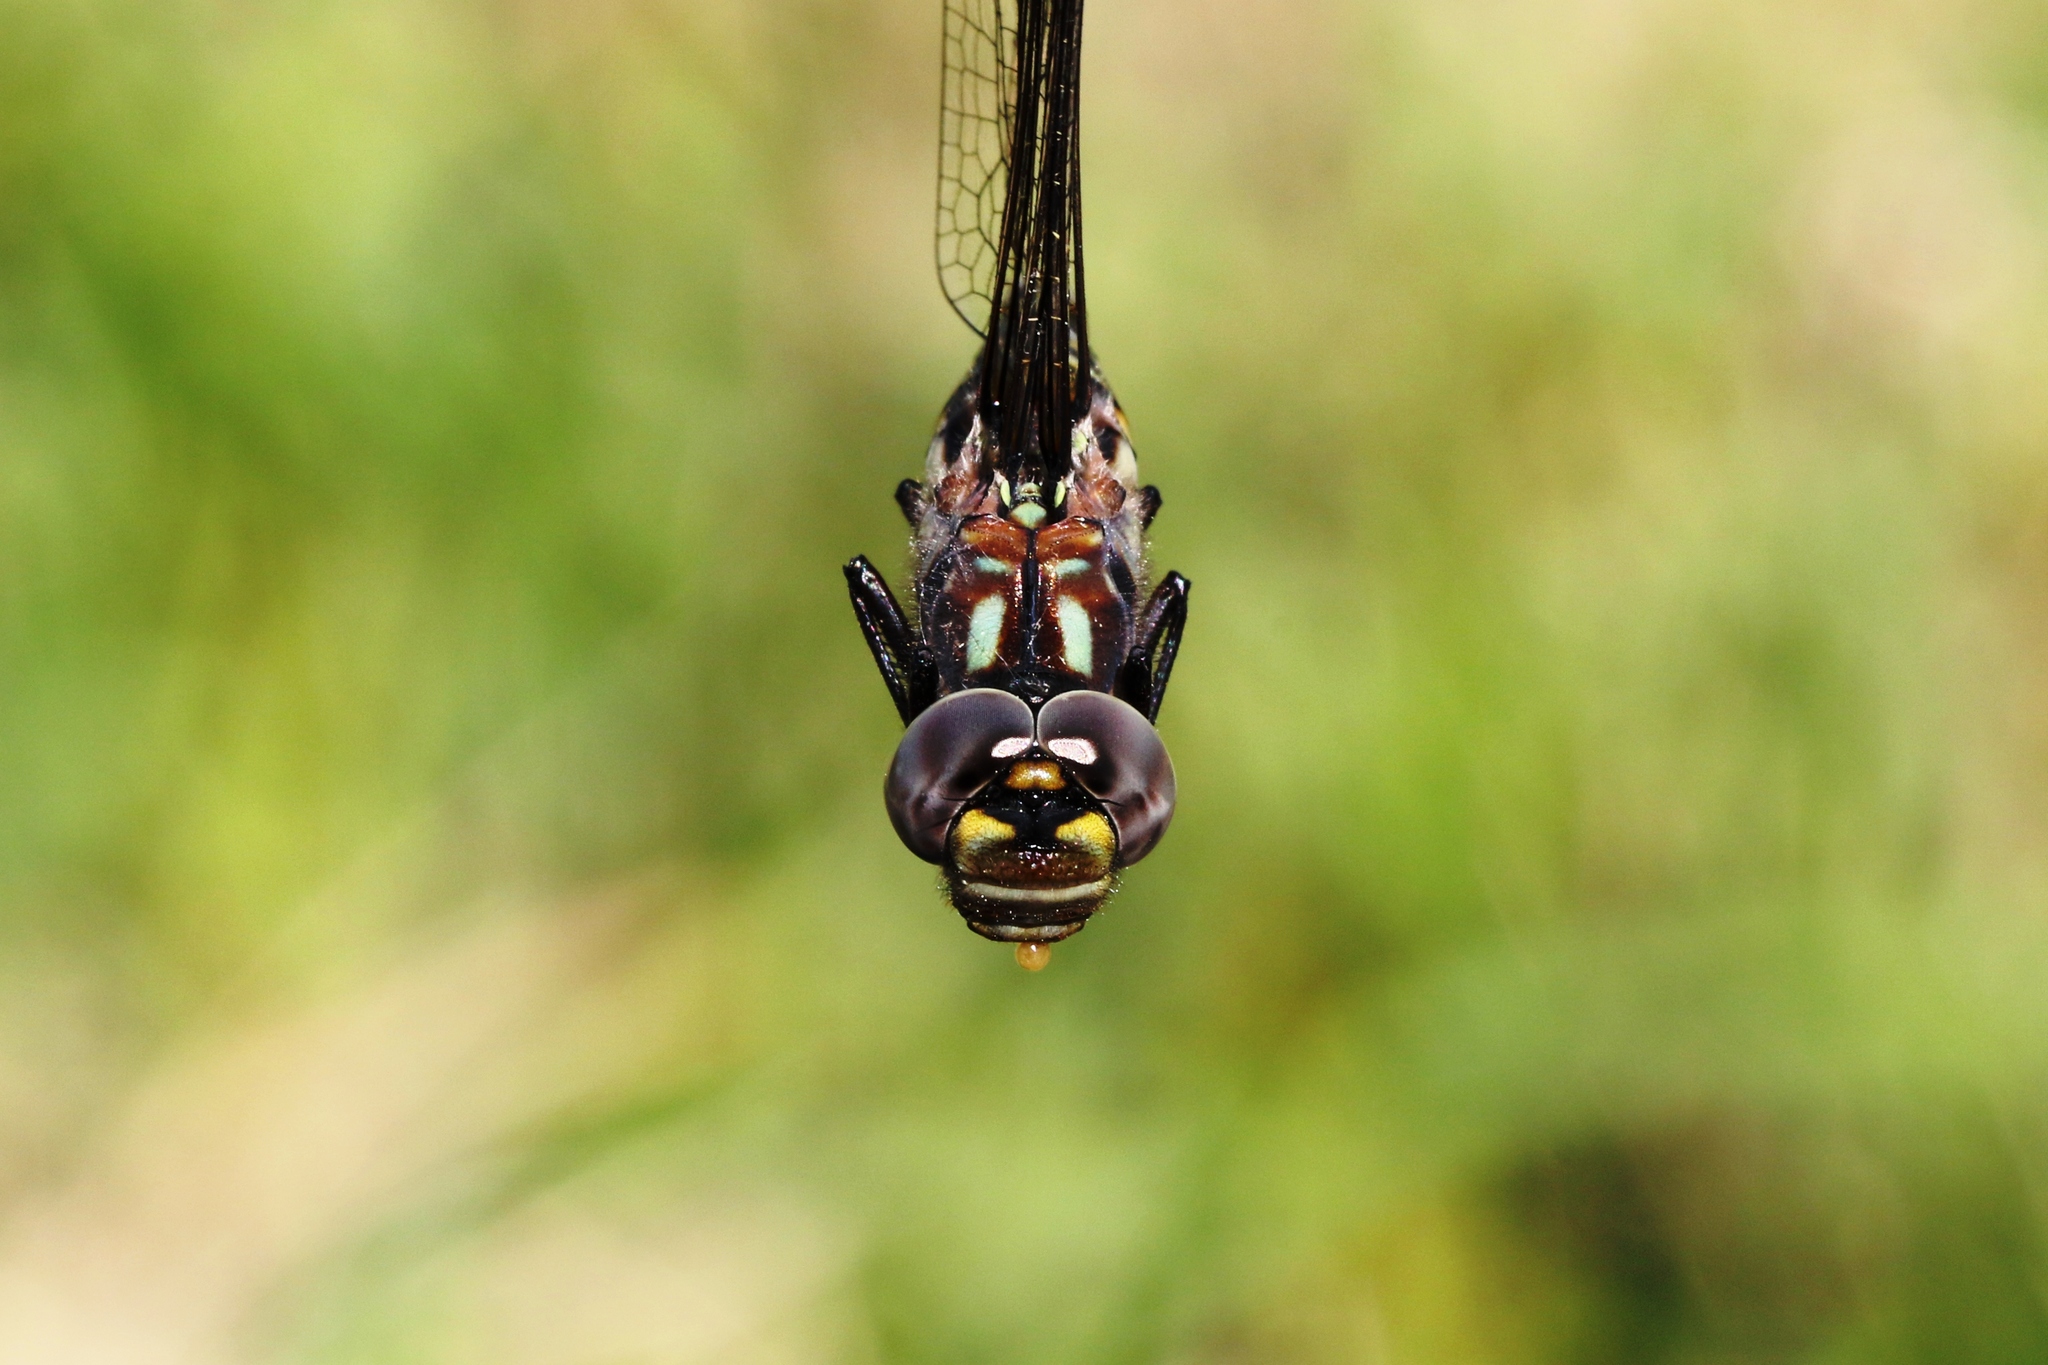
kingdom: Animalia
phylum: Arthropoda
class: Insecta
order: Odonata
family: Aeshnidae
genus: Gomphaeschna
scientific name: Gomphaeschna furcillata
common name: Harlequin darner
